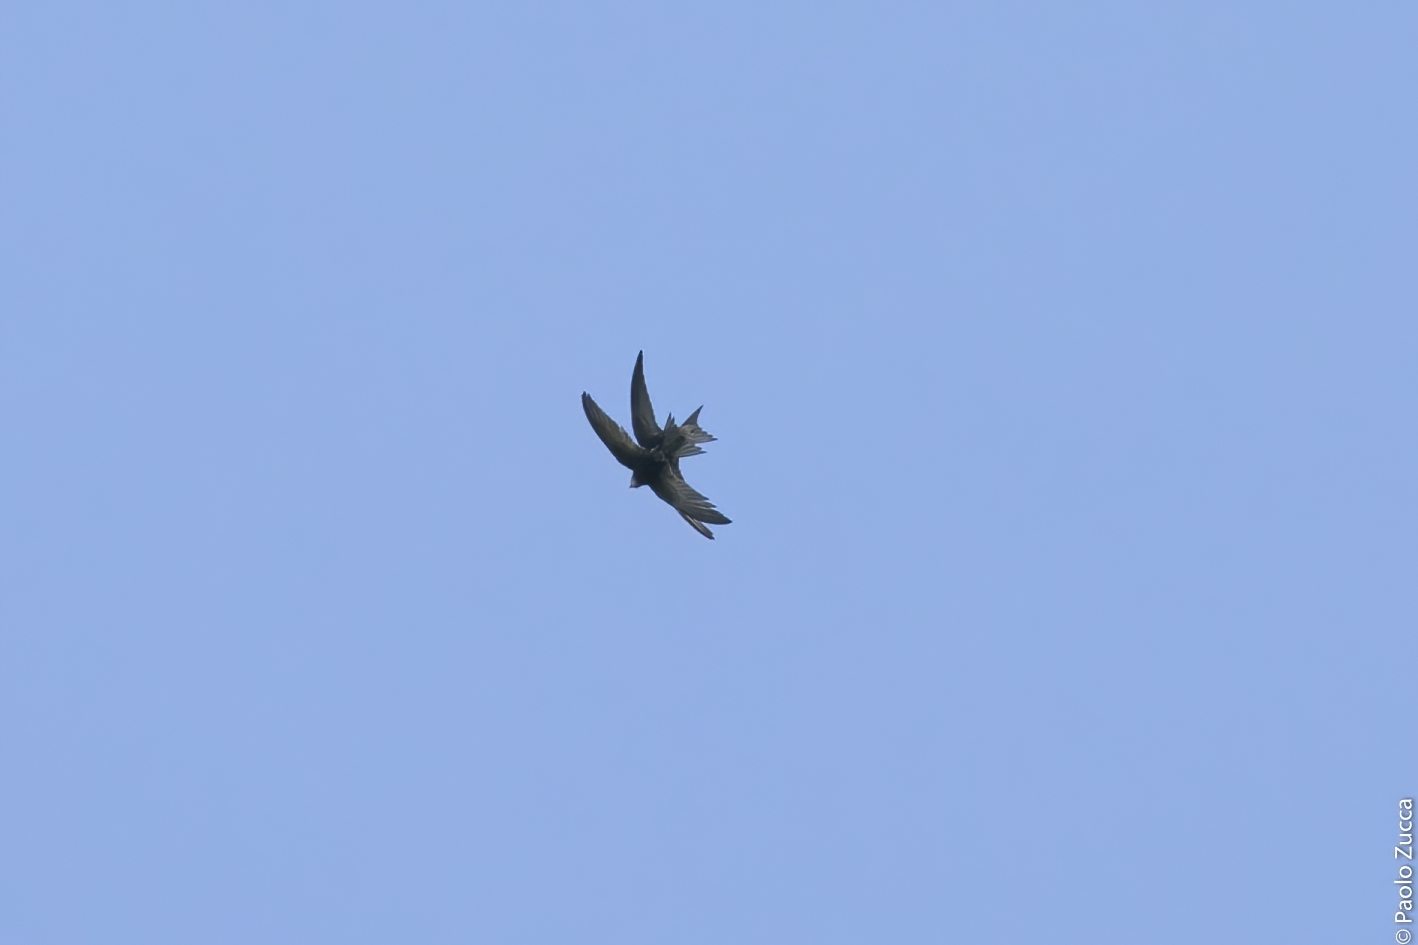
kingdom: Animalia
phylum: Chordata
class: Aves
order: Apodiformes
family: Apodidae
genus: Apus
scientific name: Apus apus
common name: Common swift
